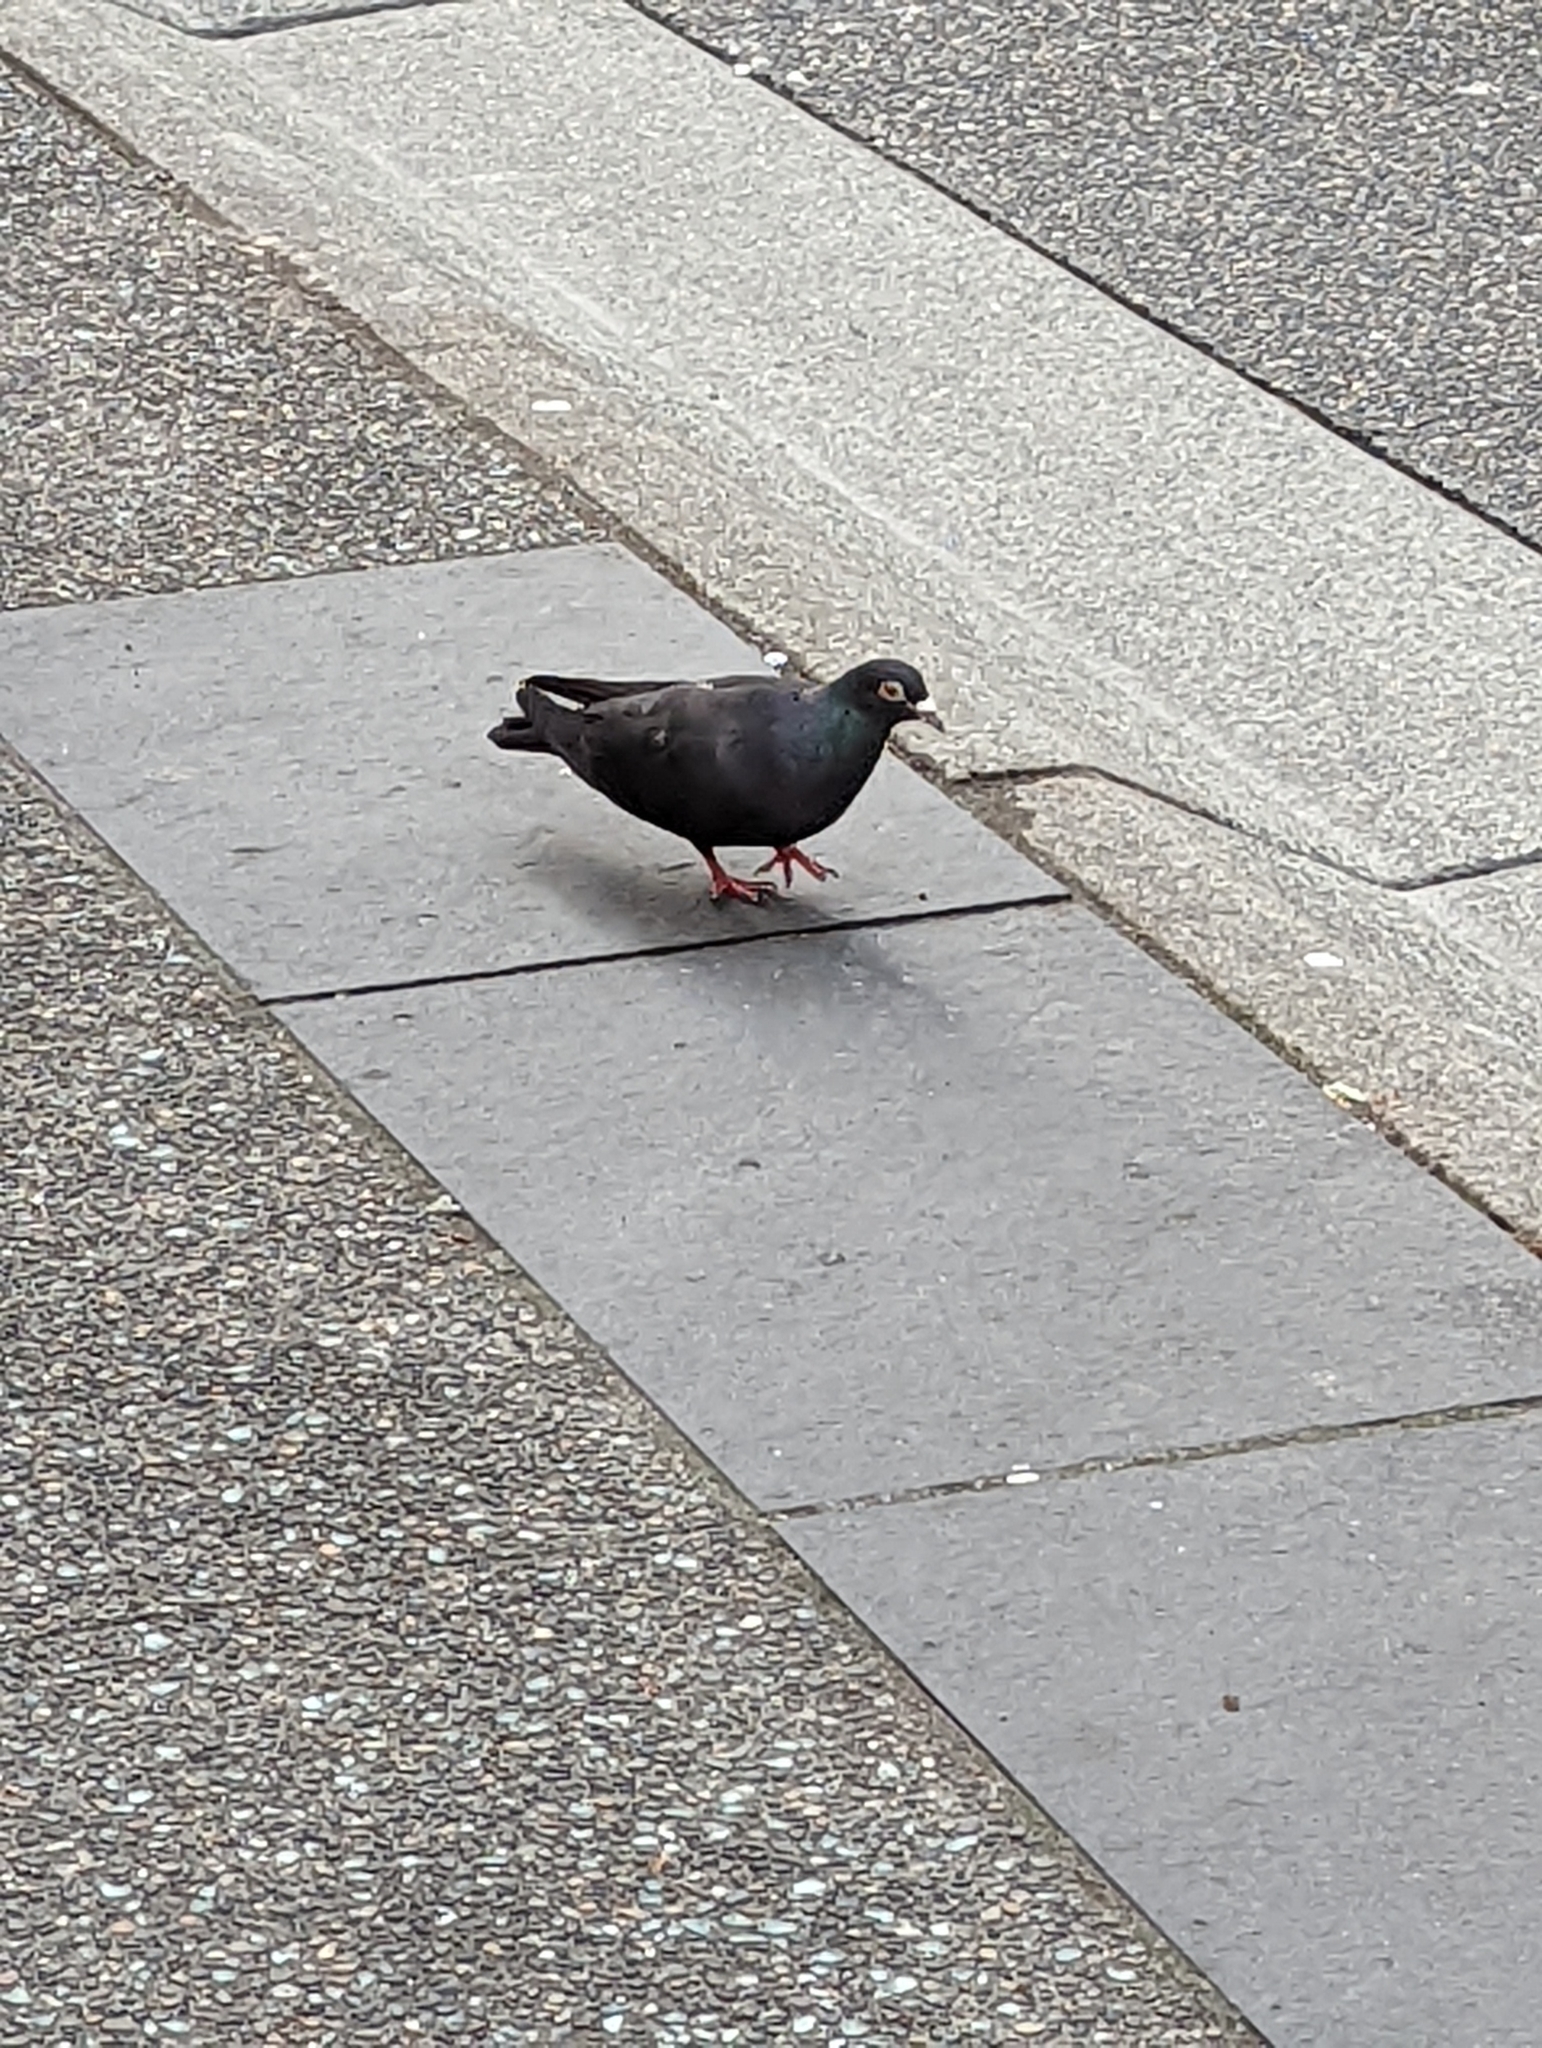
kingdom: Animalia
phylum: Chordata
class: Aves
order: Columbiformes
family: Columbidae
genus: Columba
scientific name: Columba livia
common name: Rock pigeon
